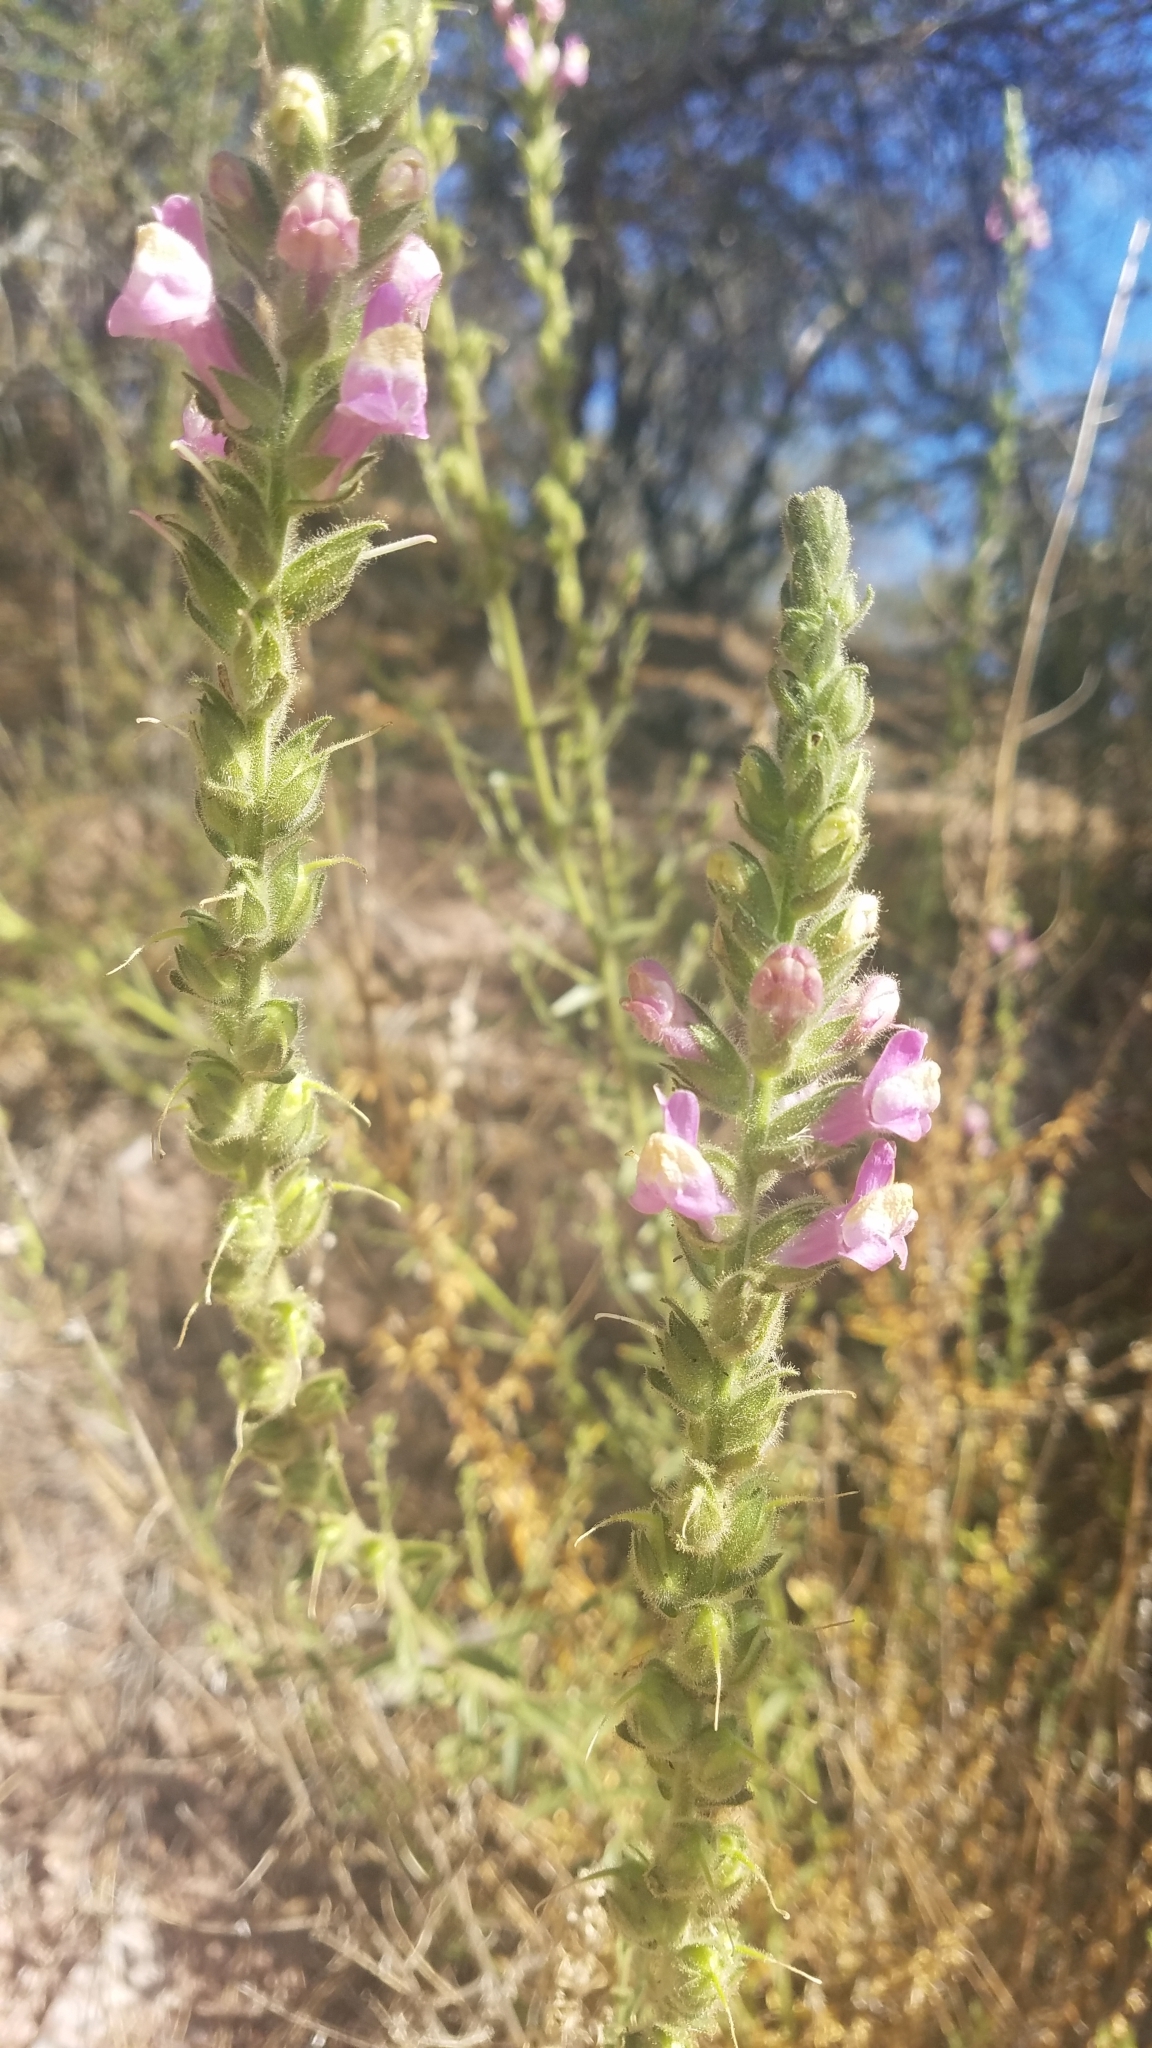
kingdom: Plantae
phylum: Tracheophyta
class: Magnoliopsida
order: Lamiales
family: Plantaginaceae
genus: Sairocarpus
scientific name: Sairocarpus multiflorus
